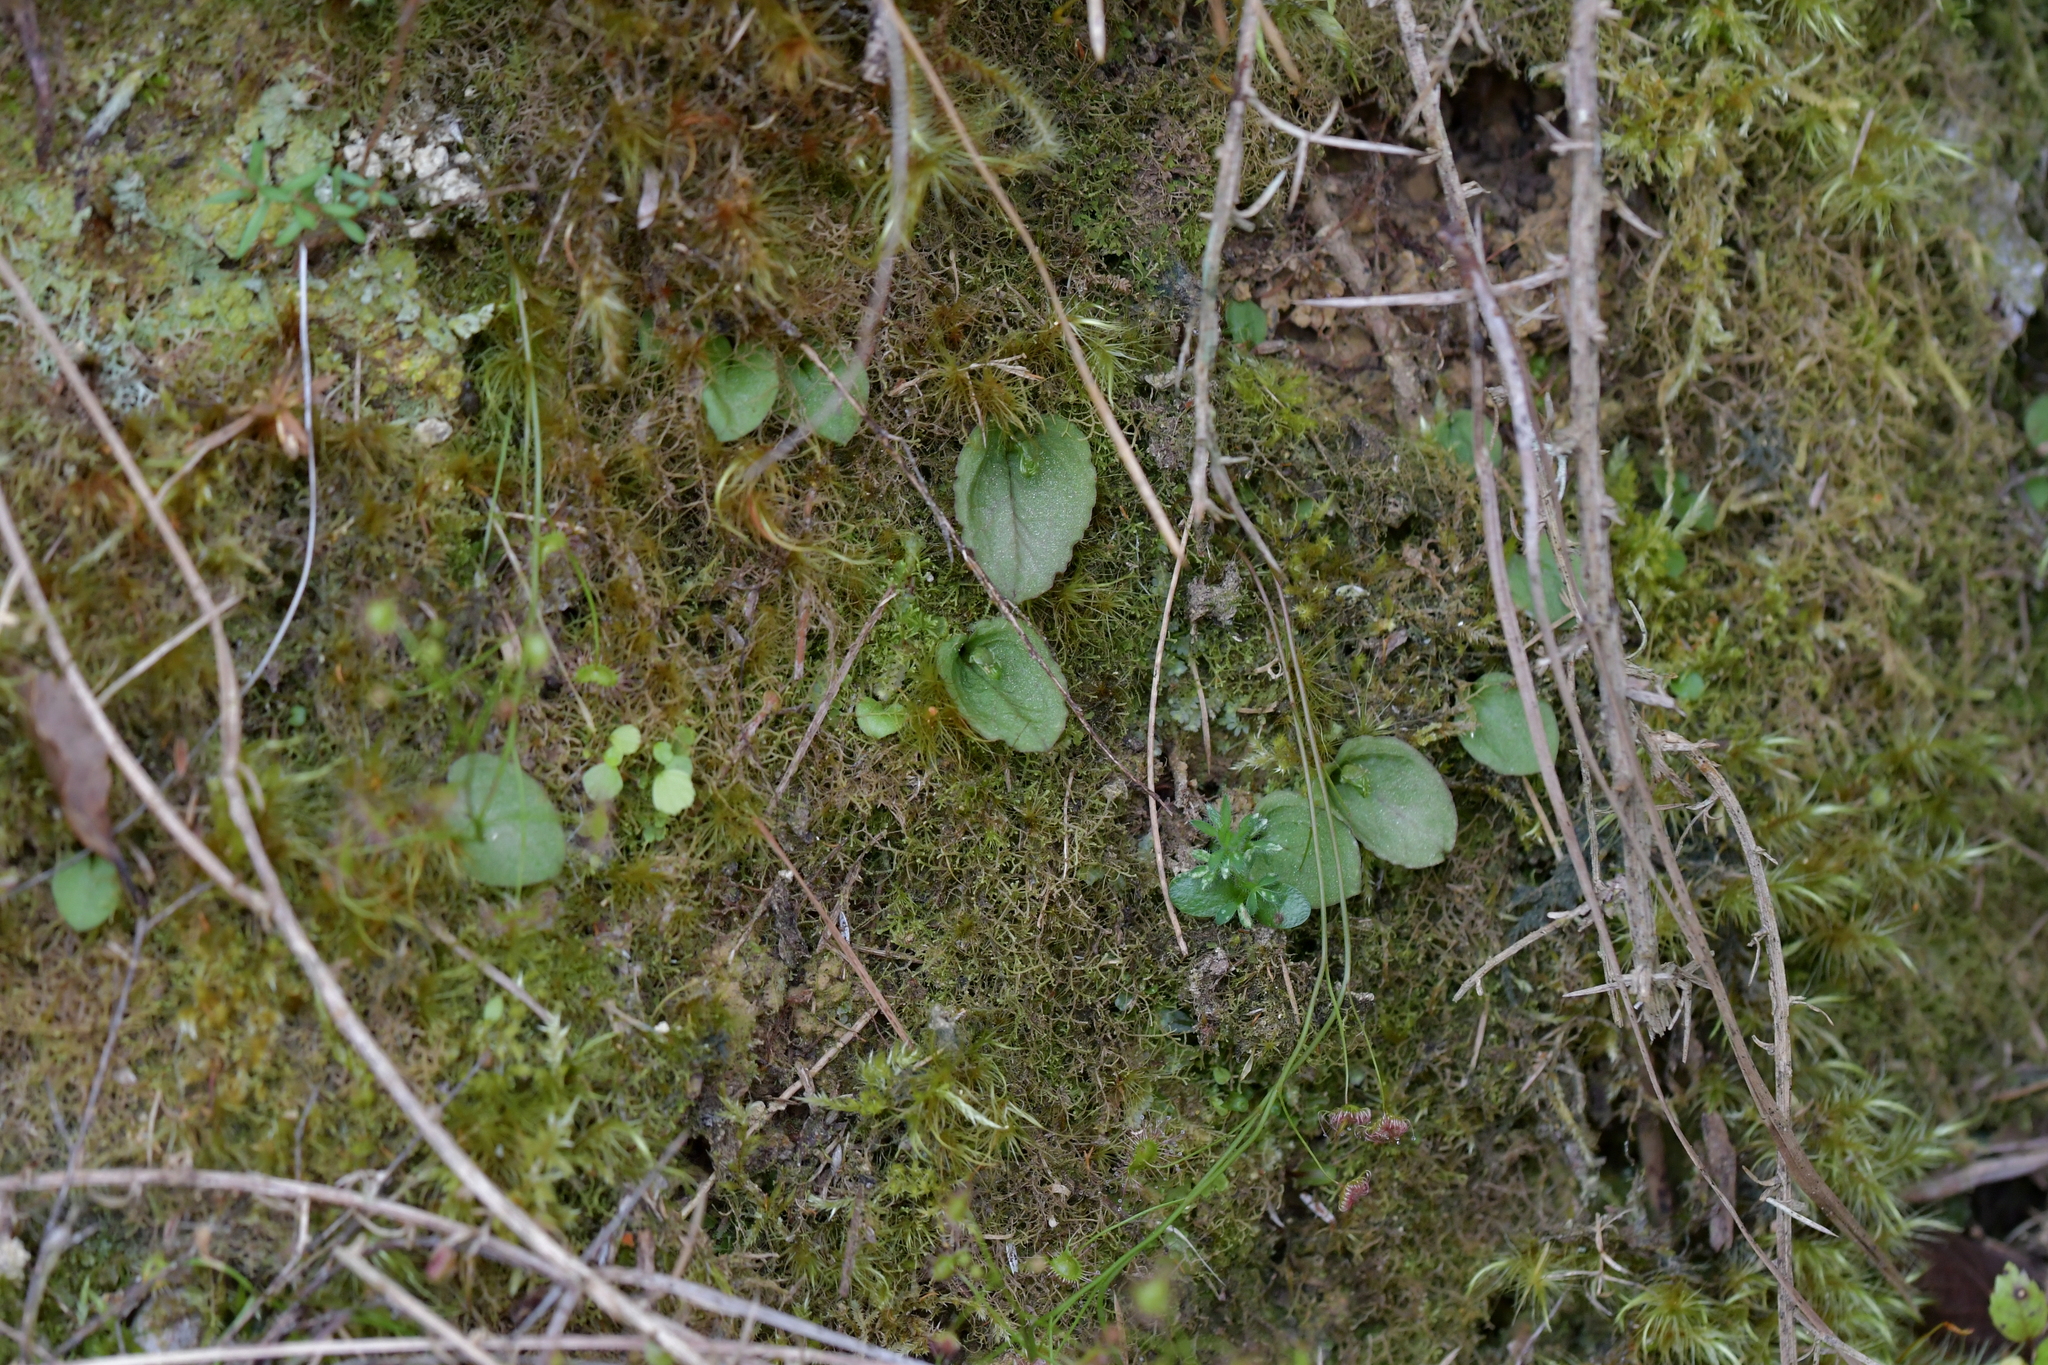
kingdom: Plantae
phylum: Tracheophyta
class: Liliopsida
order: Asparagales
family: Orchidaceae
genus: Corybas
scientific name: Corybas oblongus
